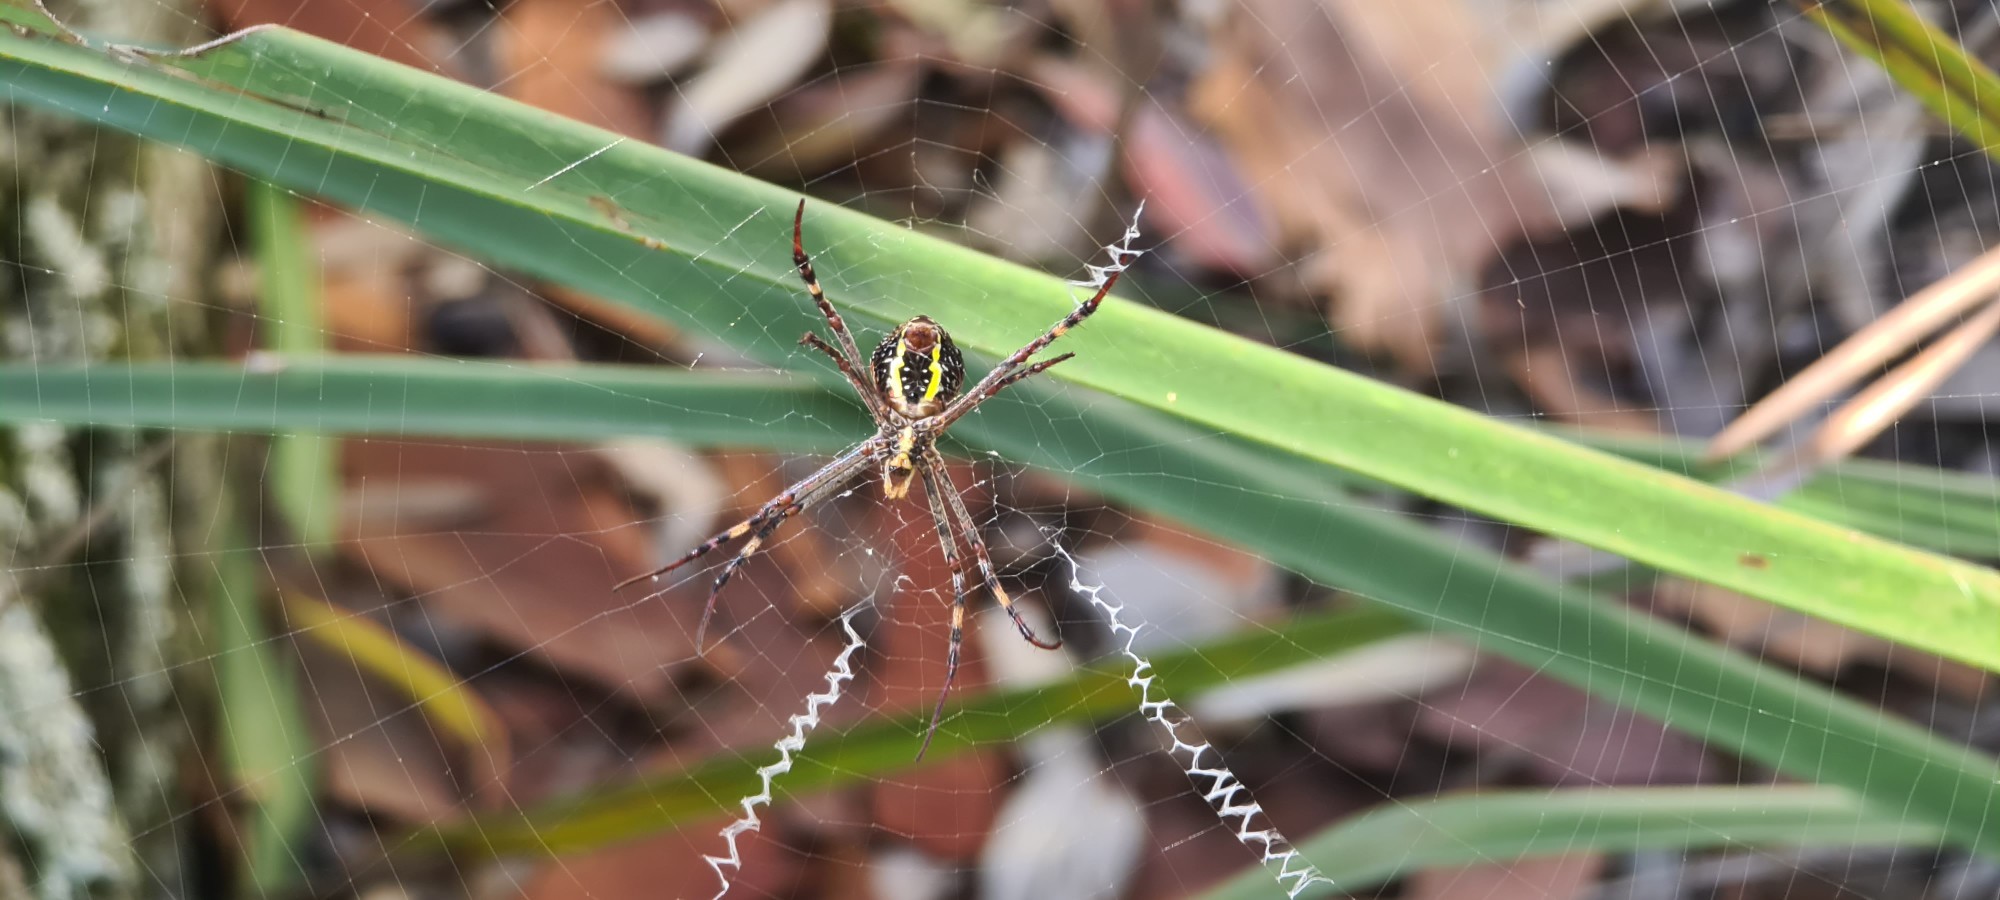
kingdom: Animalia
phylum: Arthropoda
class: Arachnida
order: Araneae
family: Araneidae
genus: Argiope
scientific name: Argiope keyserlingi
